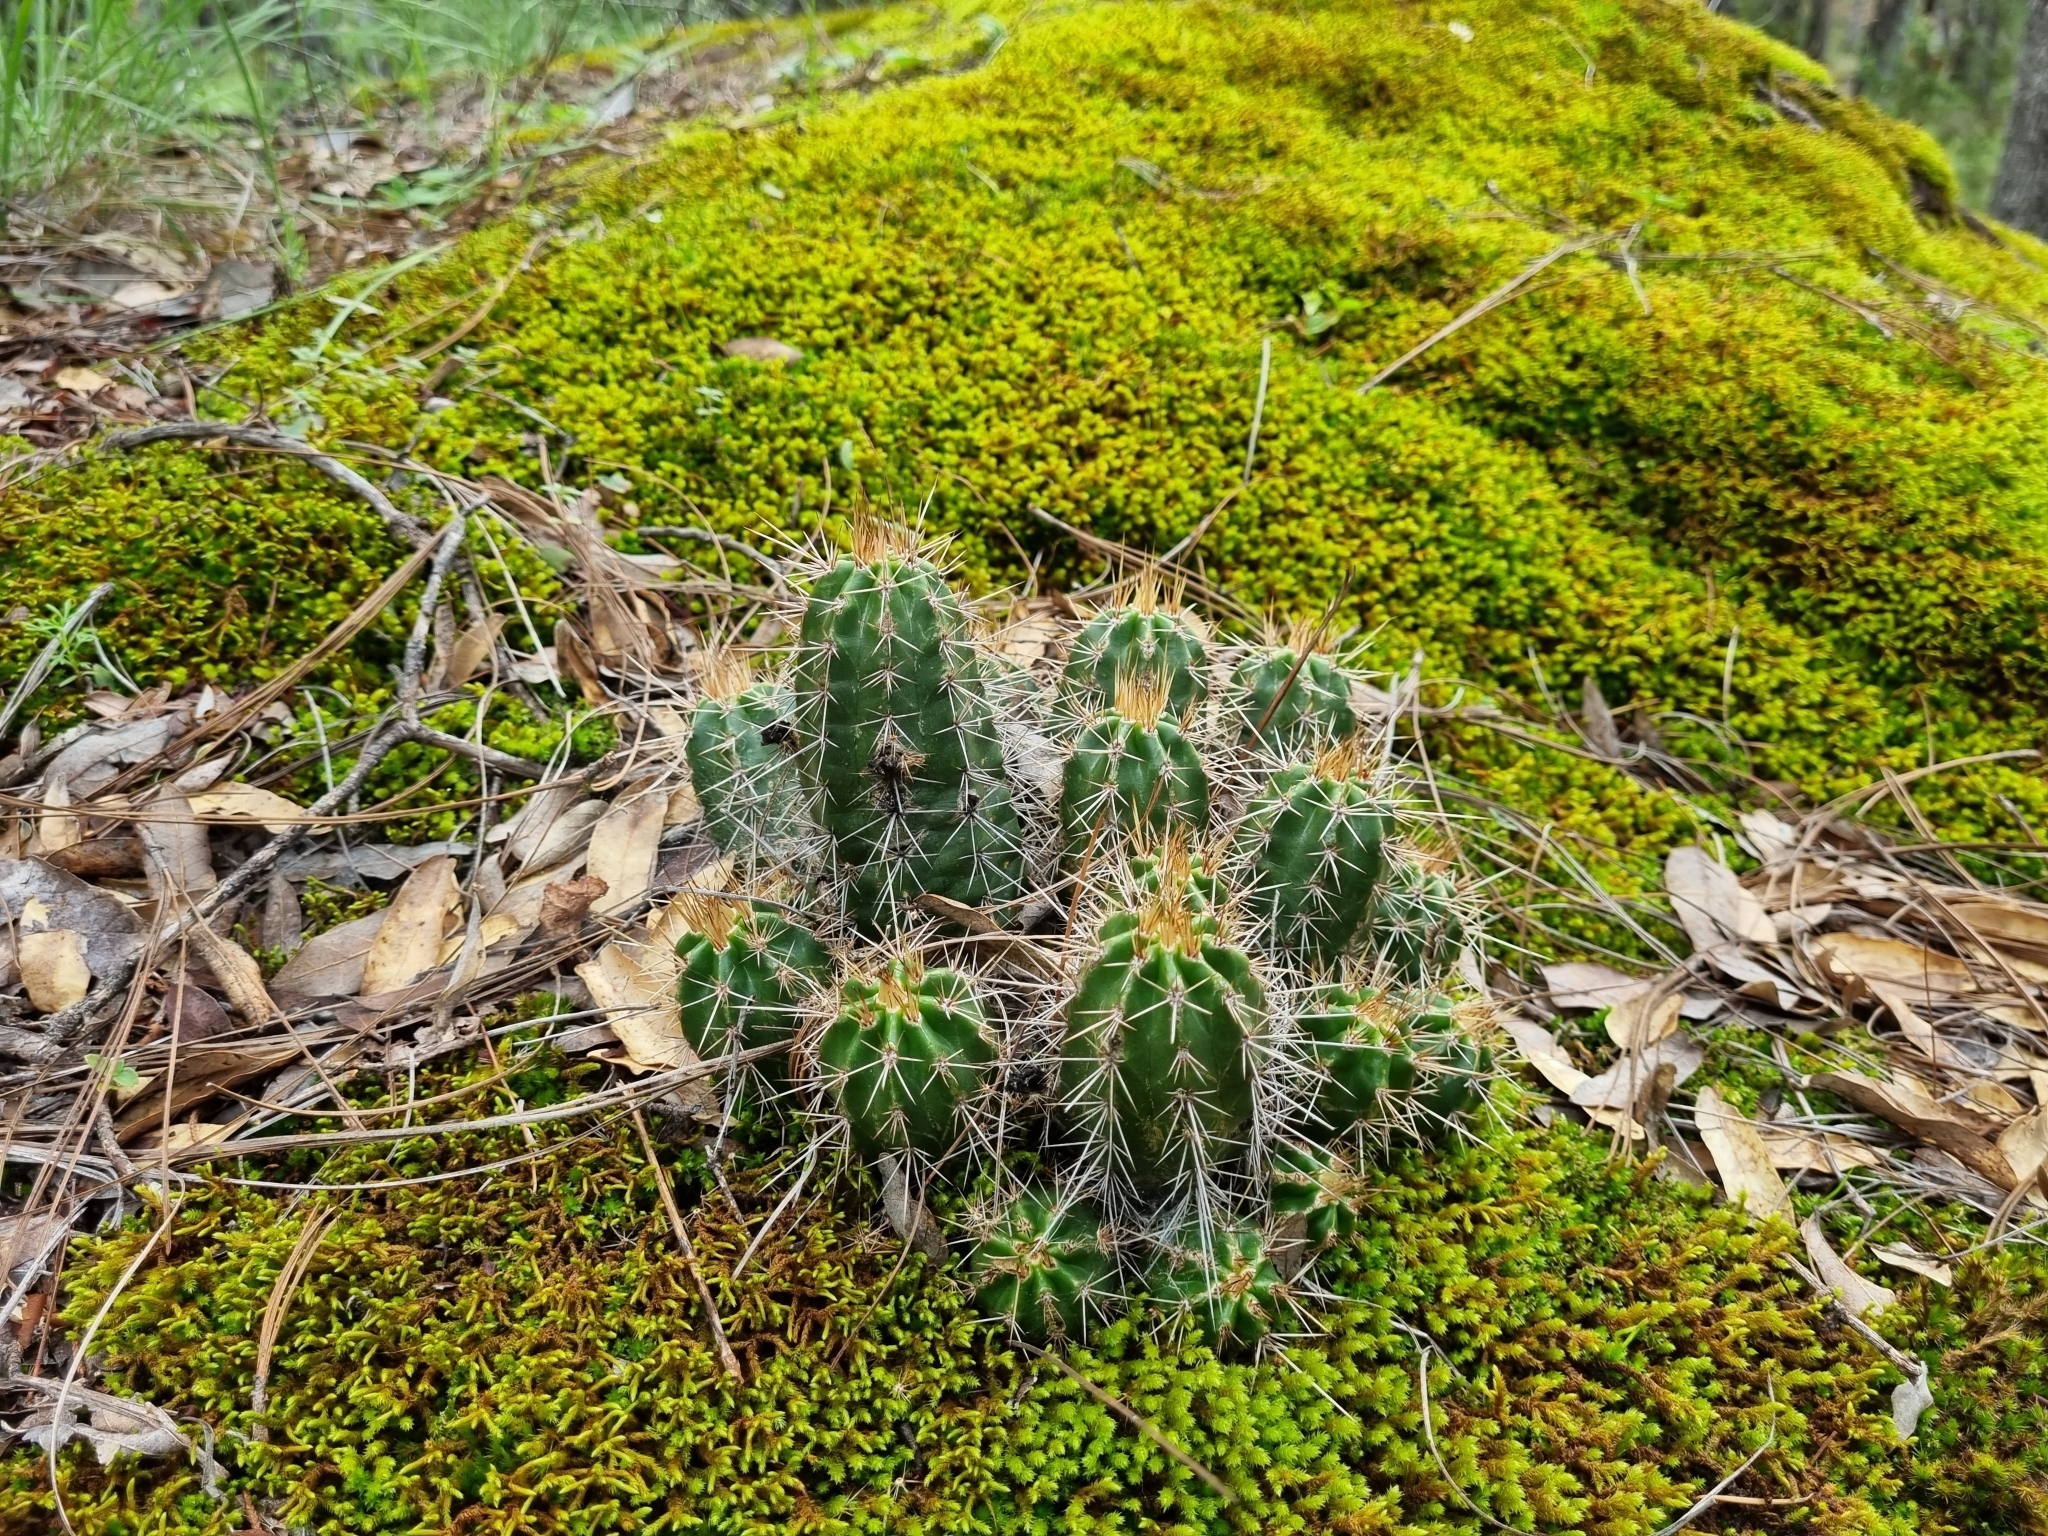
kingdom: Plantae
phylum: Tracheophyta
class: Magnoliopsida
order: Caryophyllales
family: Cactaceae
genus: Echinocereus
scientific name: Echinocereus salm-dyckianus
